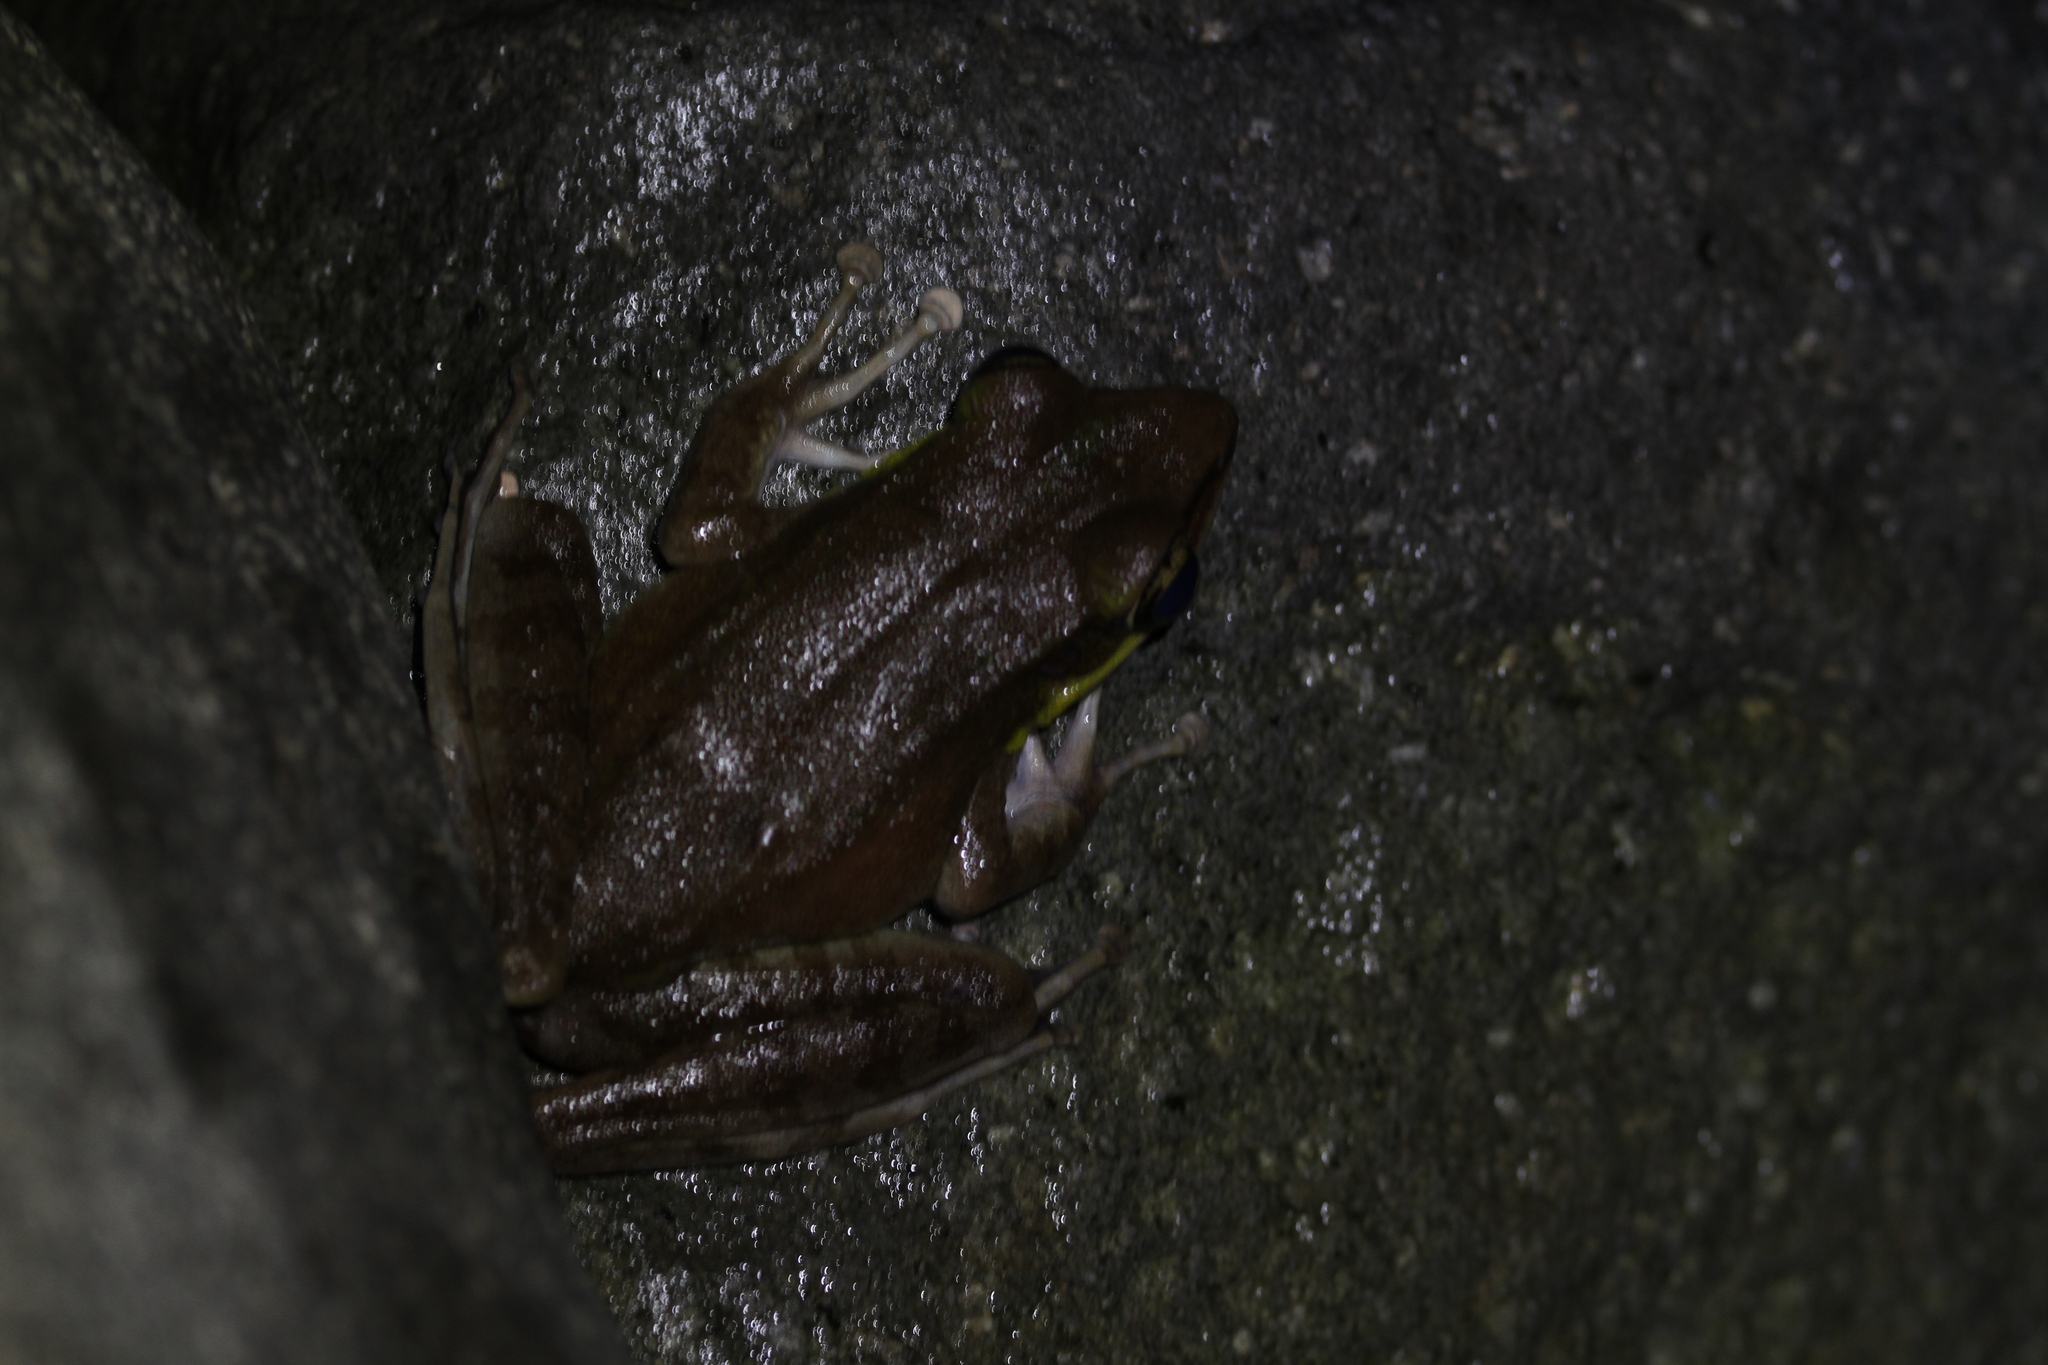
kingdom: Animalia
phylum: Chordata
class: Amphibia
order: Anura
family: Ranidae
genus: Odorrana
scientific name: Odorrana hosii
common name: Green tree frog
